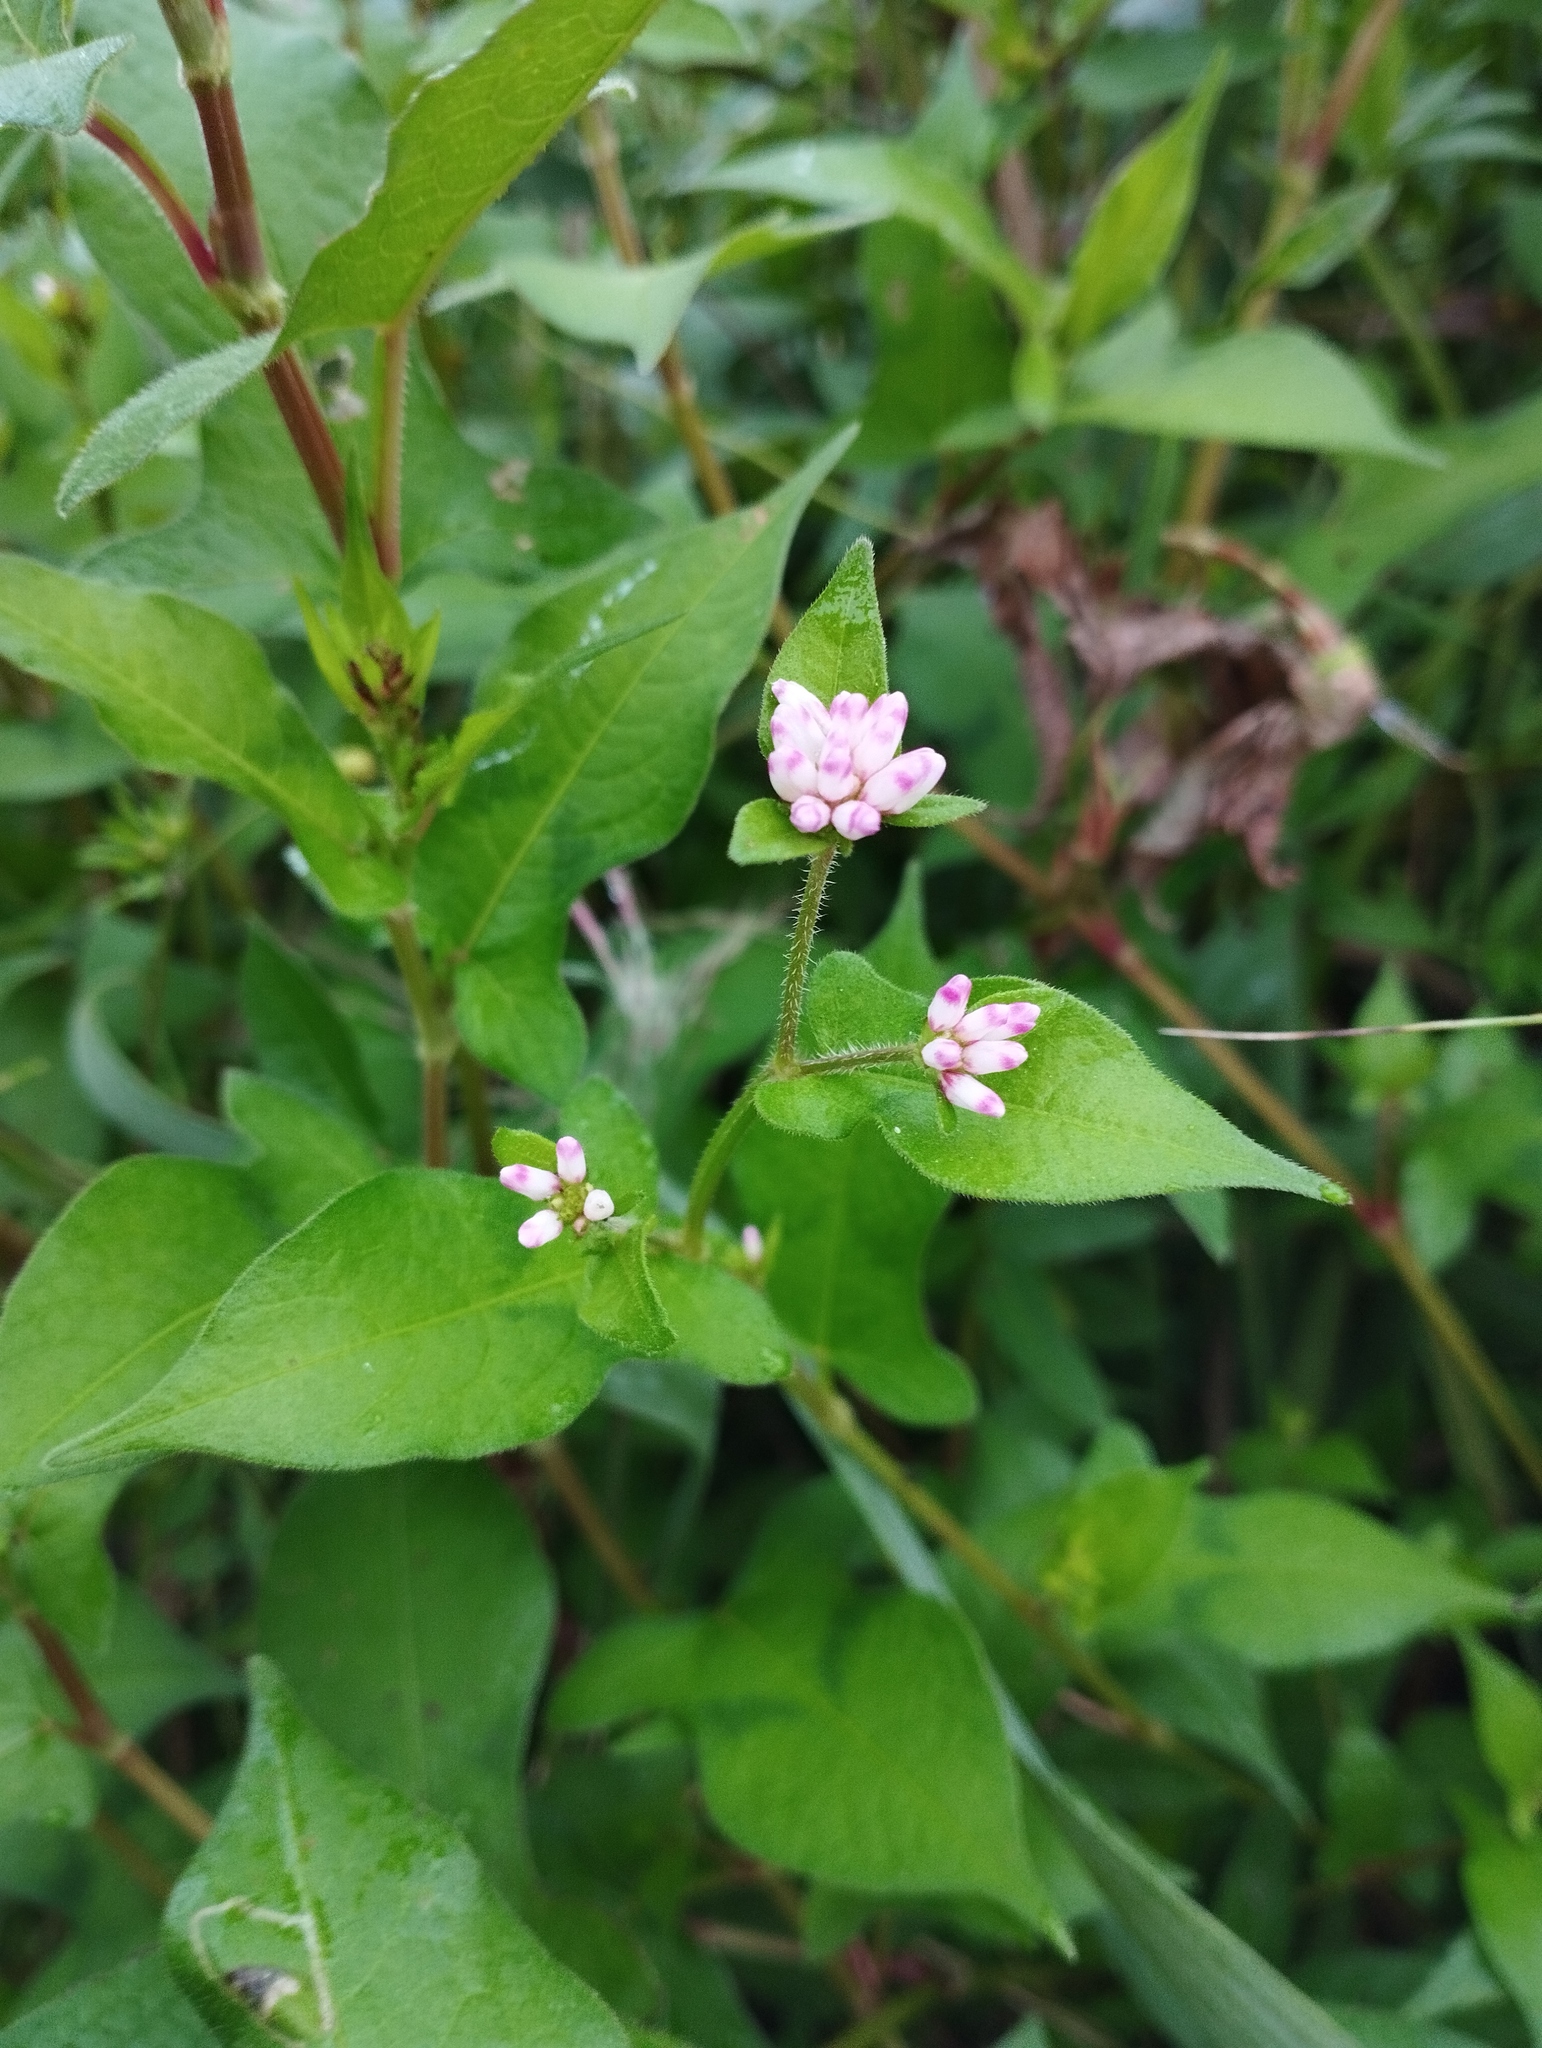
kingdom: Plantae
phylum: Tracheophyta
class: Magnoliopsida
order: Caryophyllales
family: Polygonaceae
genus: Persicaria
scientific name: Persicaria thunbergii
